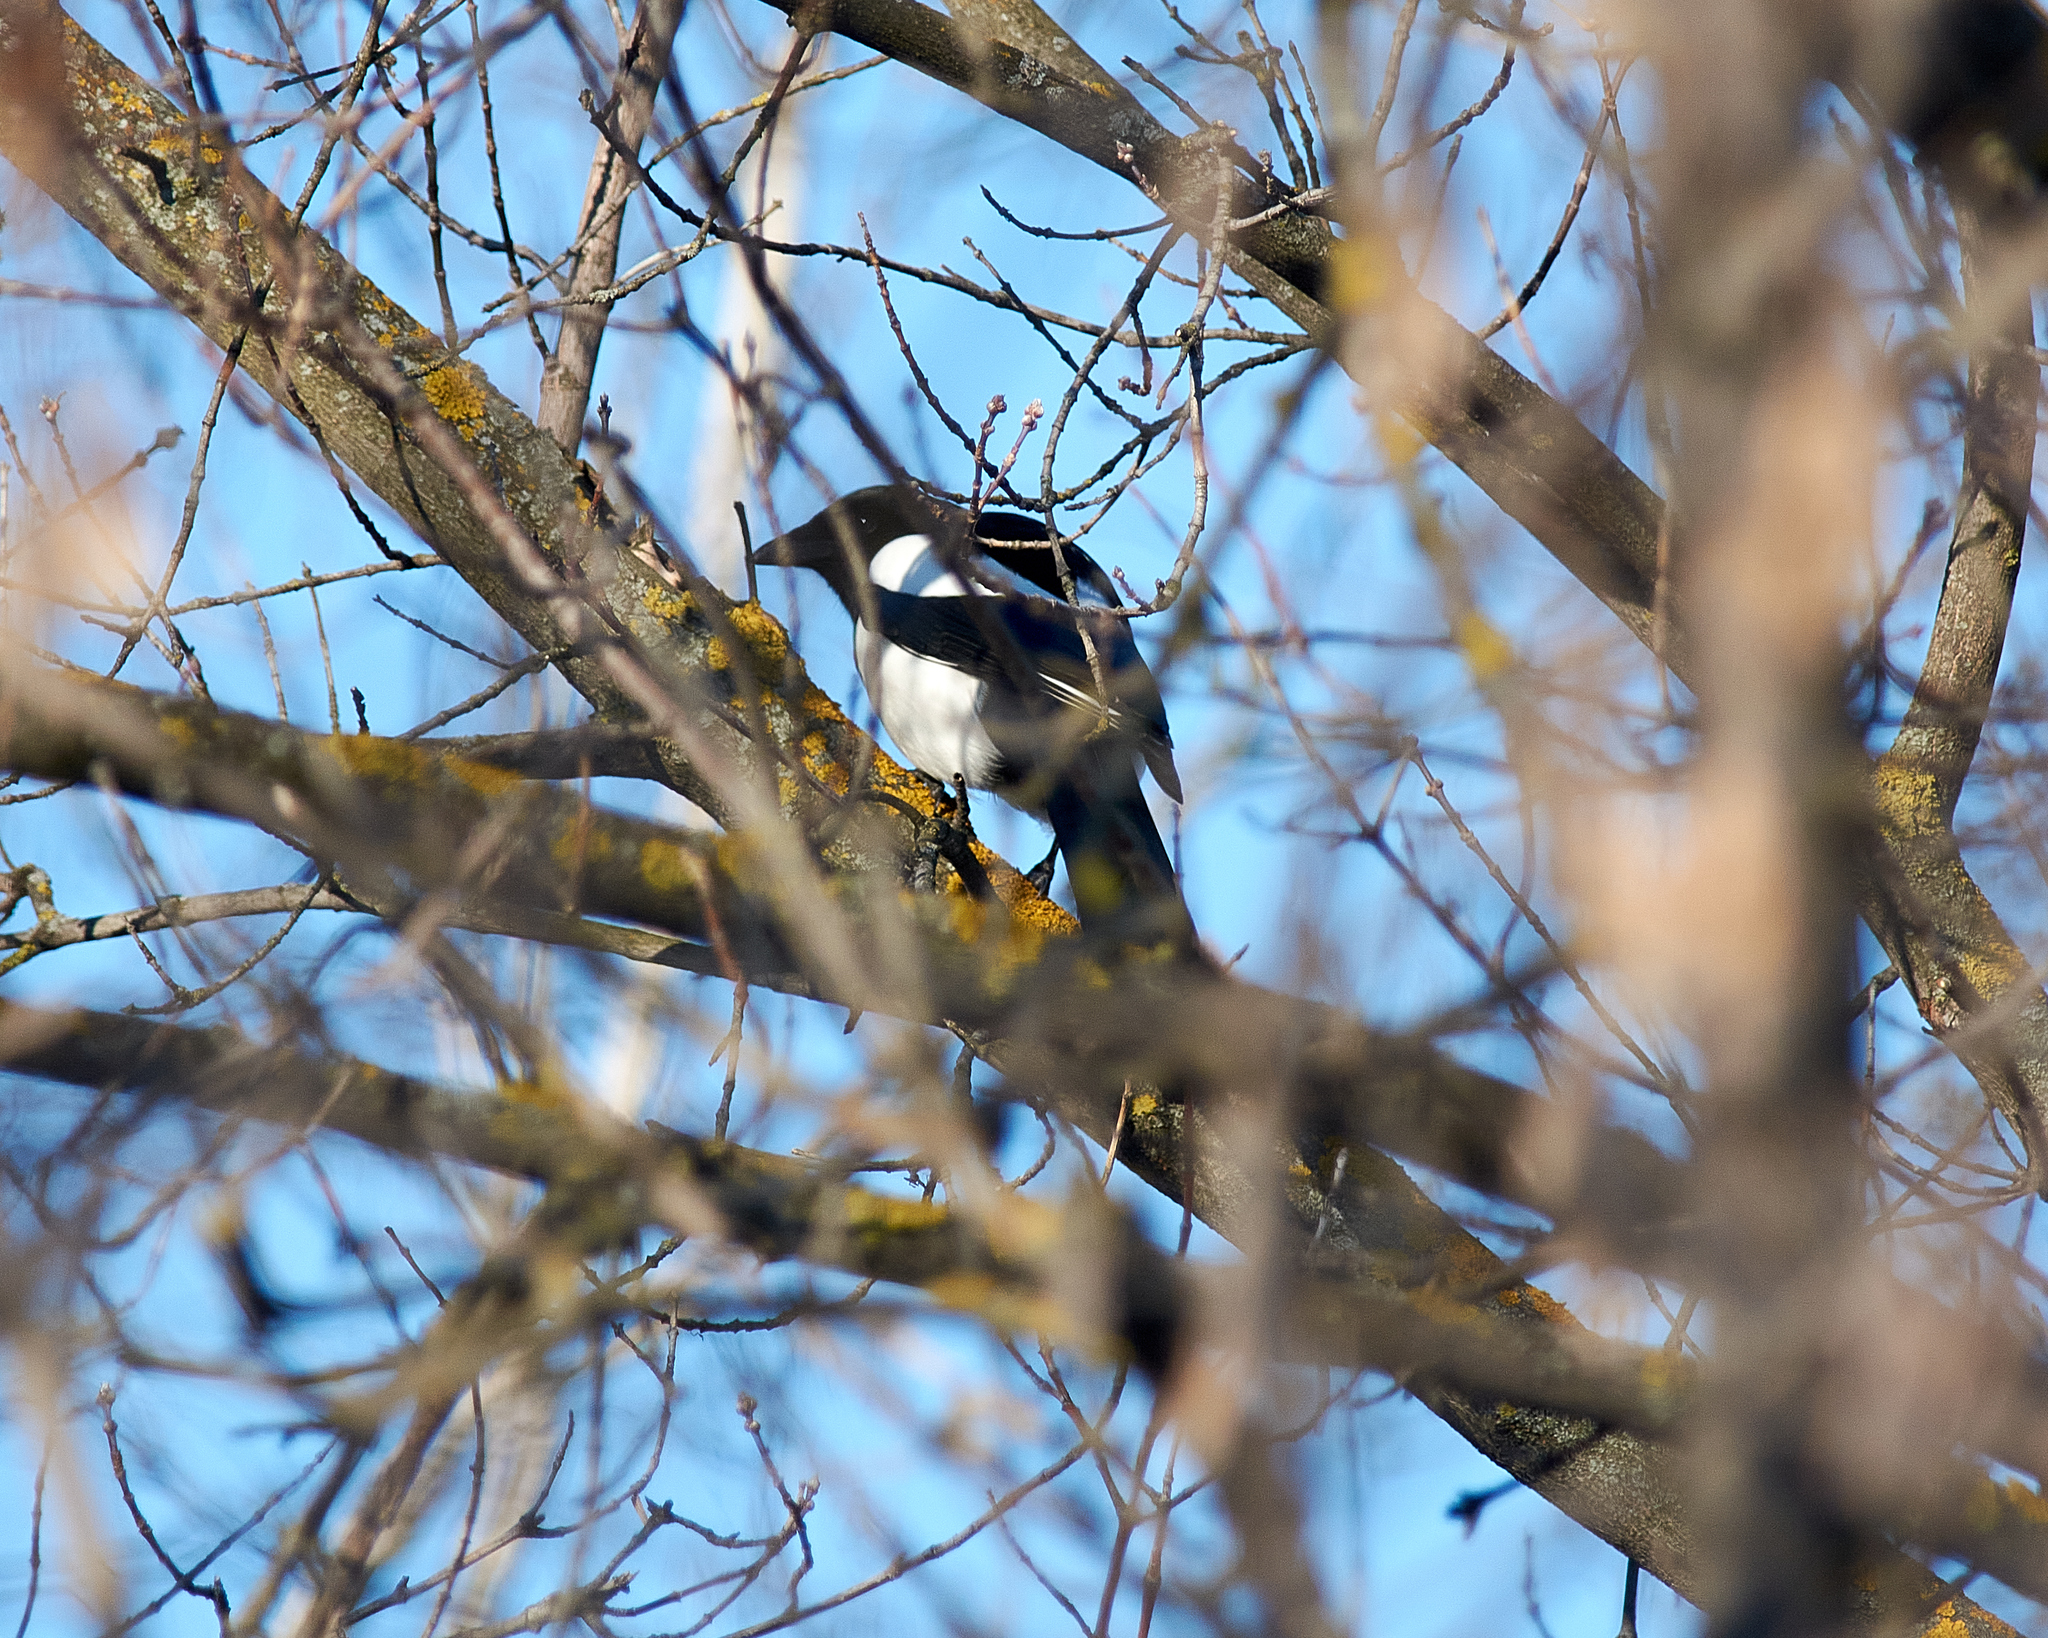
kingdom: Animalia
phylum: Chordata
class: Aves
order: Passeriformes
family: Corvidae
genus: Pica
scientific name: Pica pica
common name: Eurasian magpie
